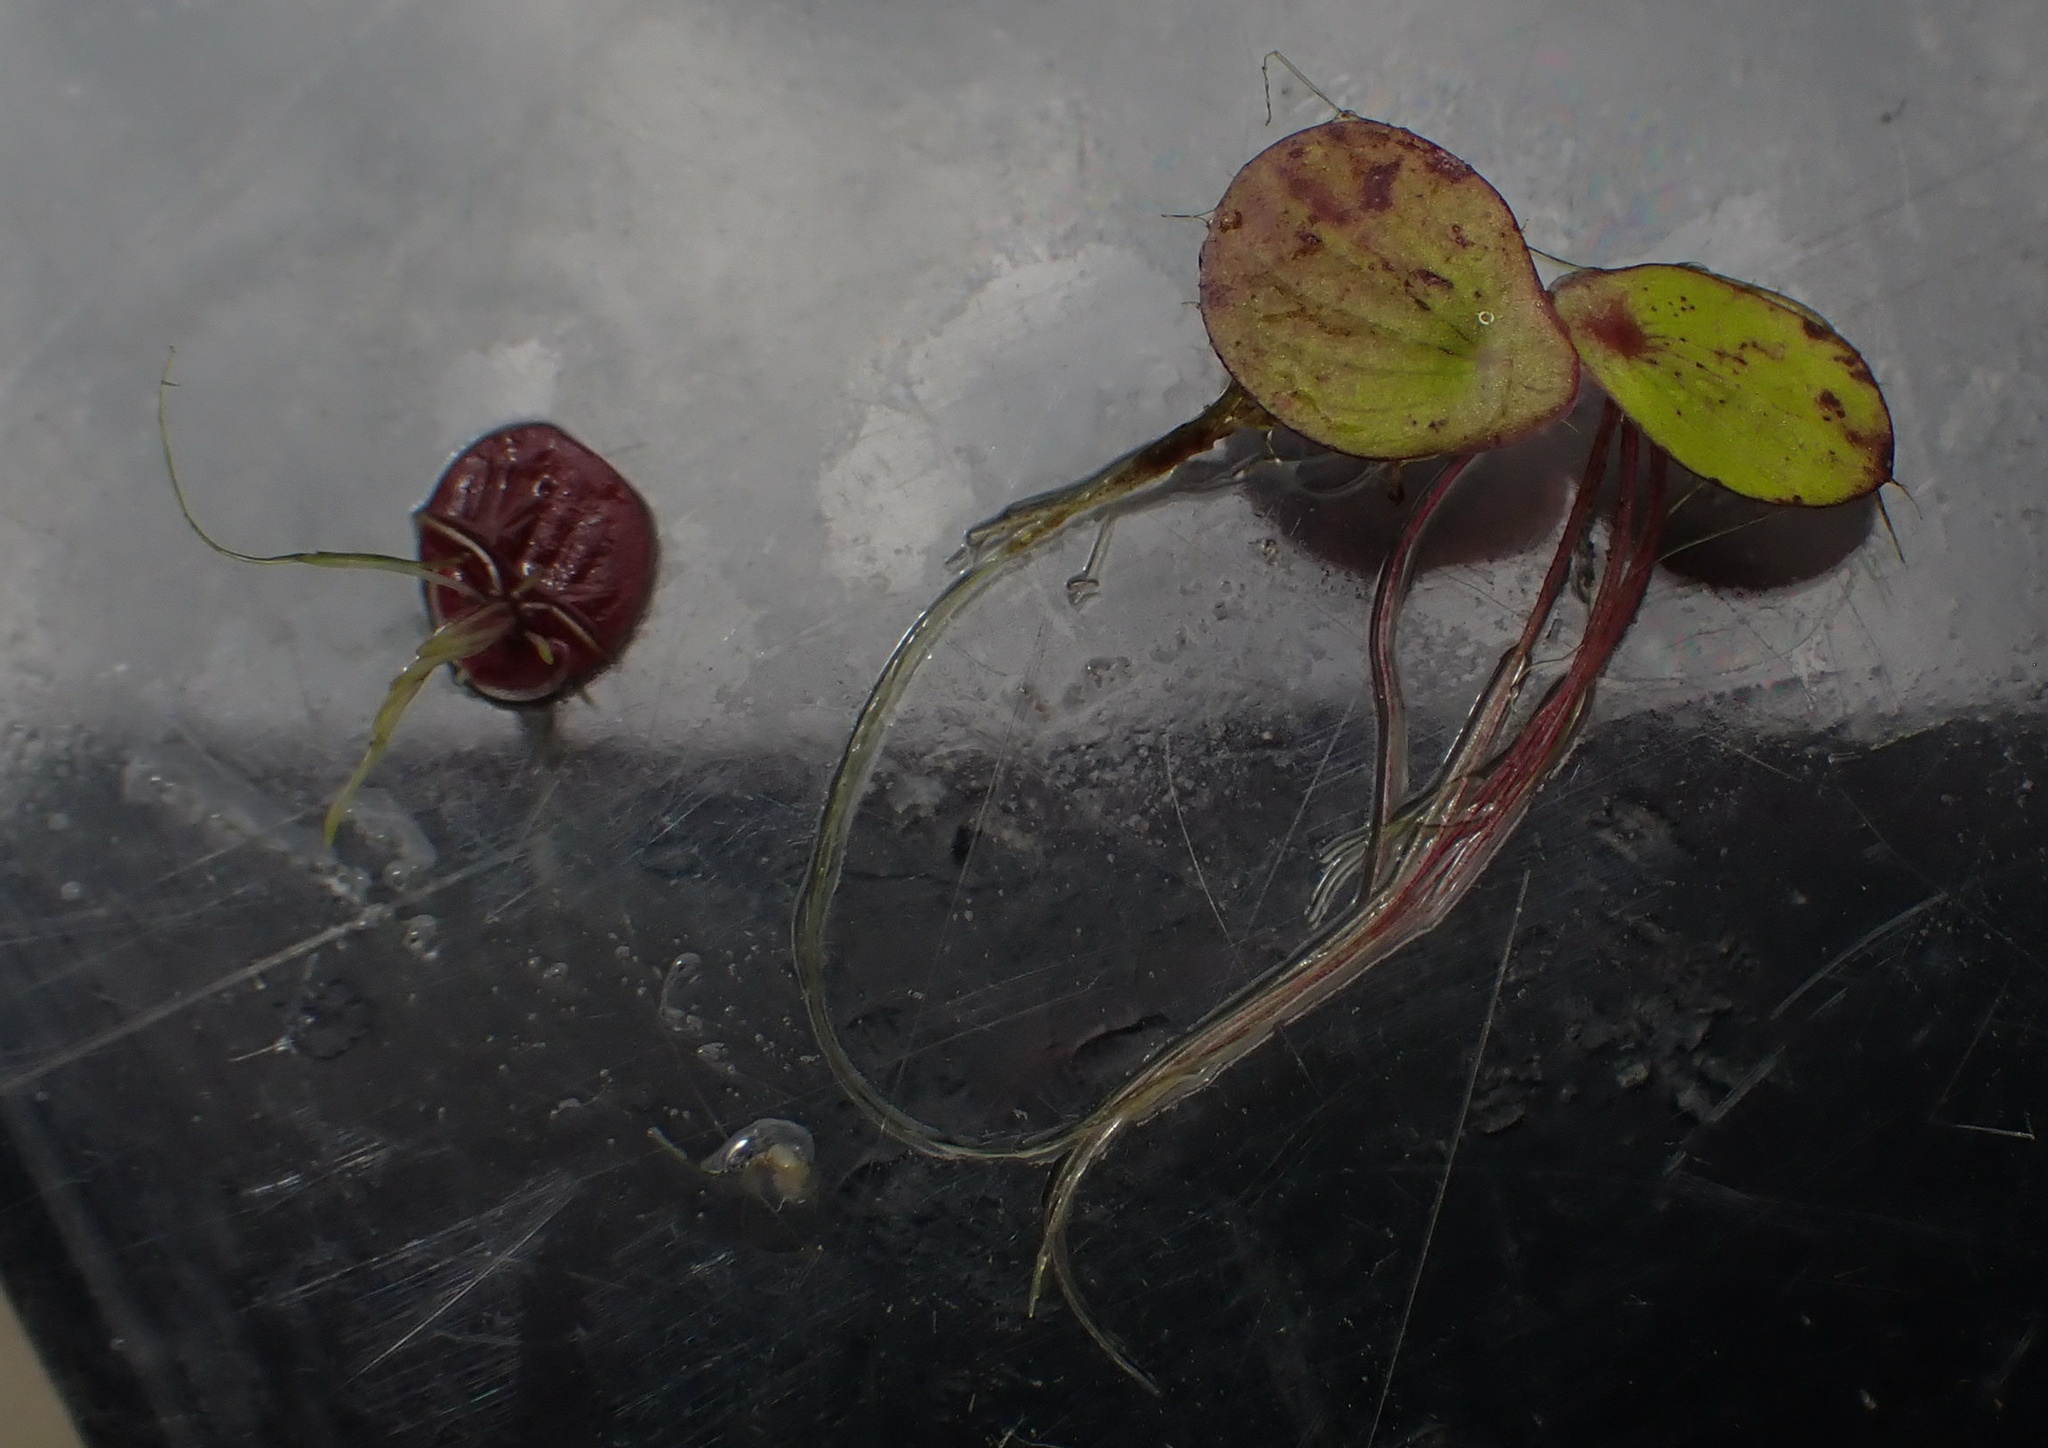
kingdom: Plantae
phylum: Tracheophyta
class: Liliopsida
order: Alismatales
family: Araceae
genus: Spirodela
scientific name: Spirodela polyrhiza
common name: Great duckweed
